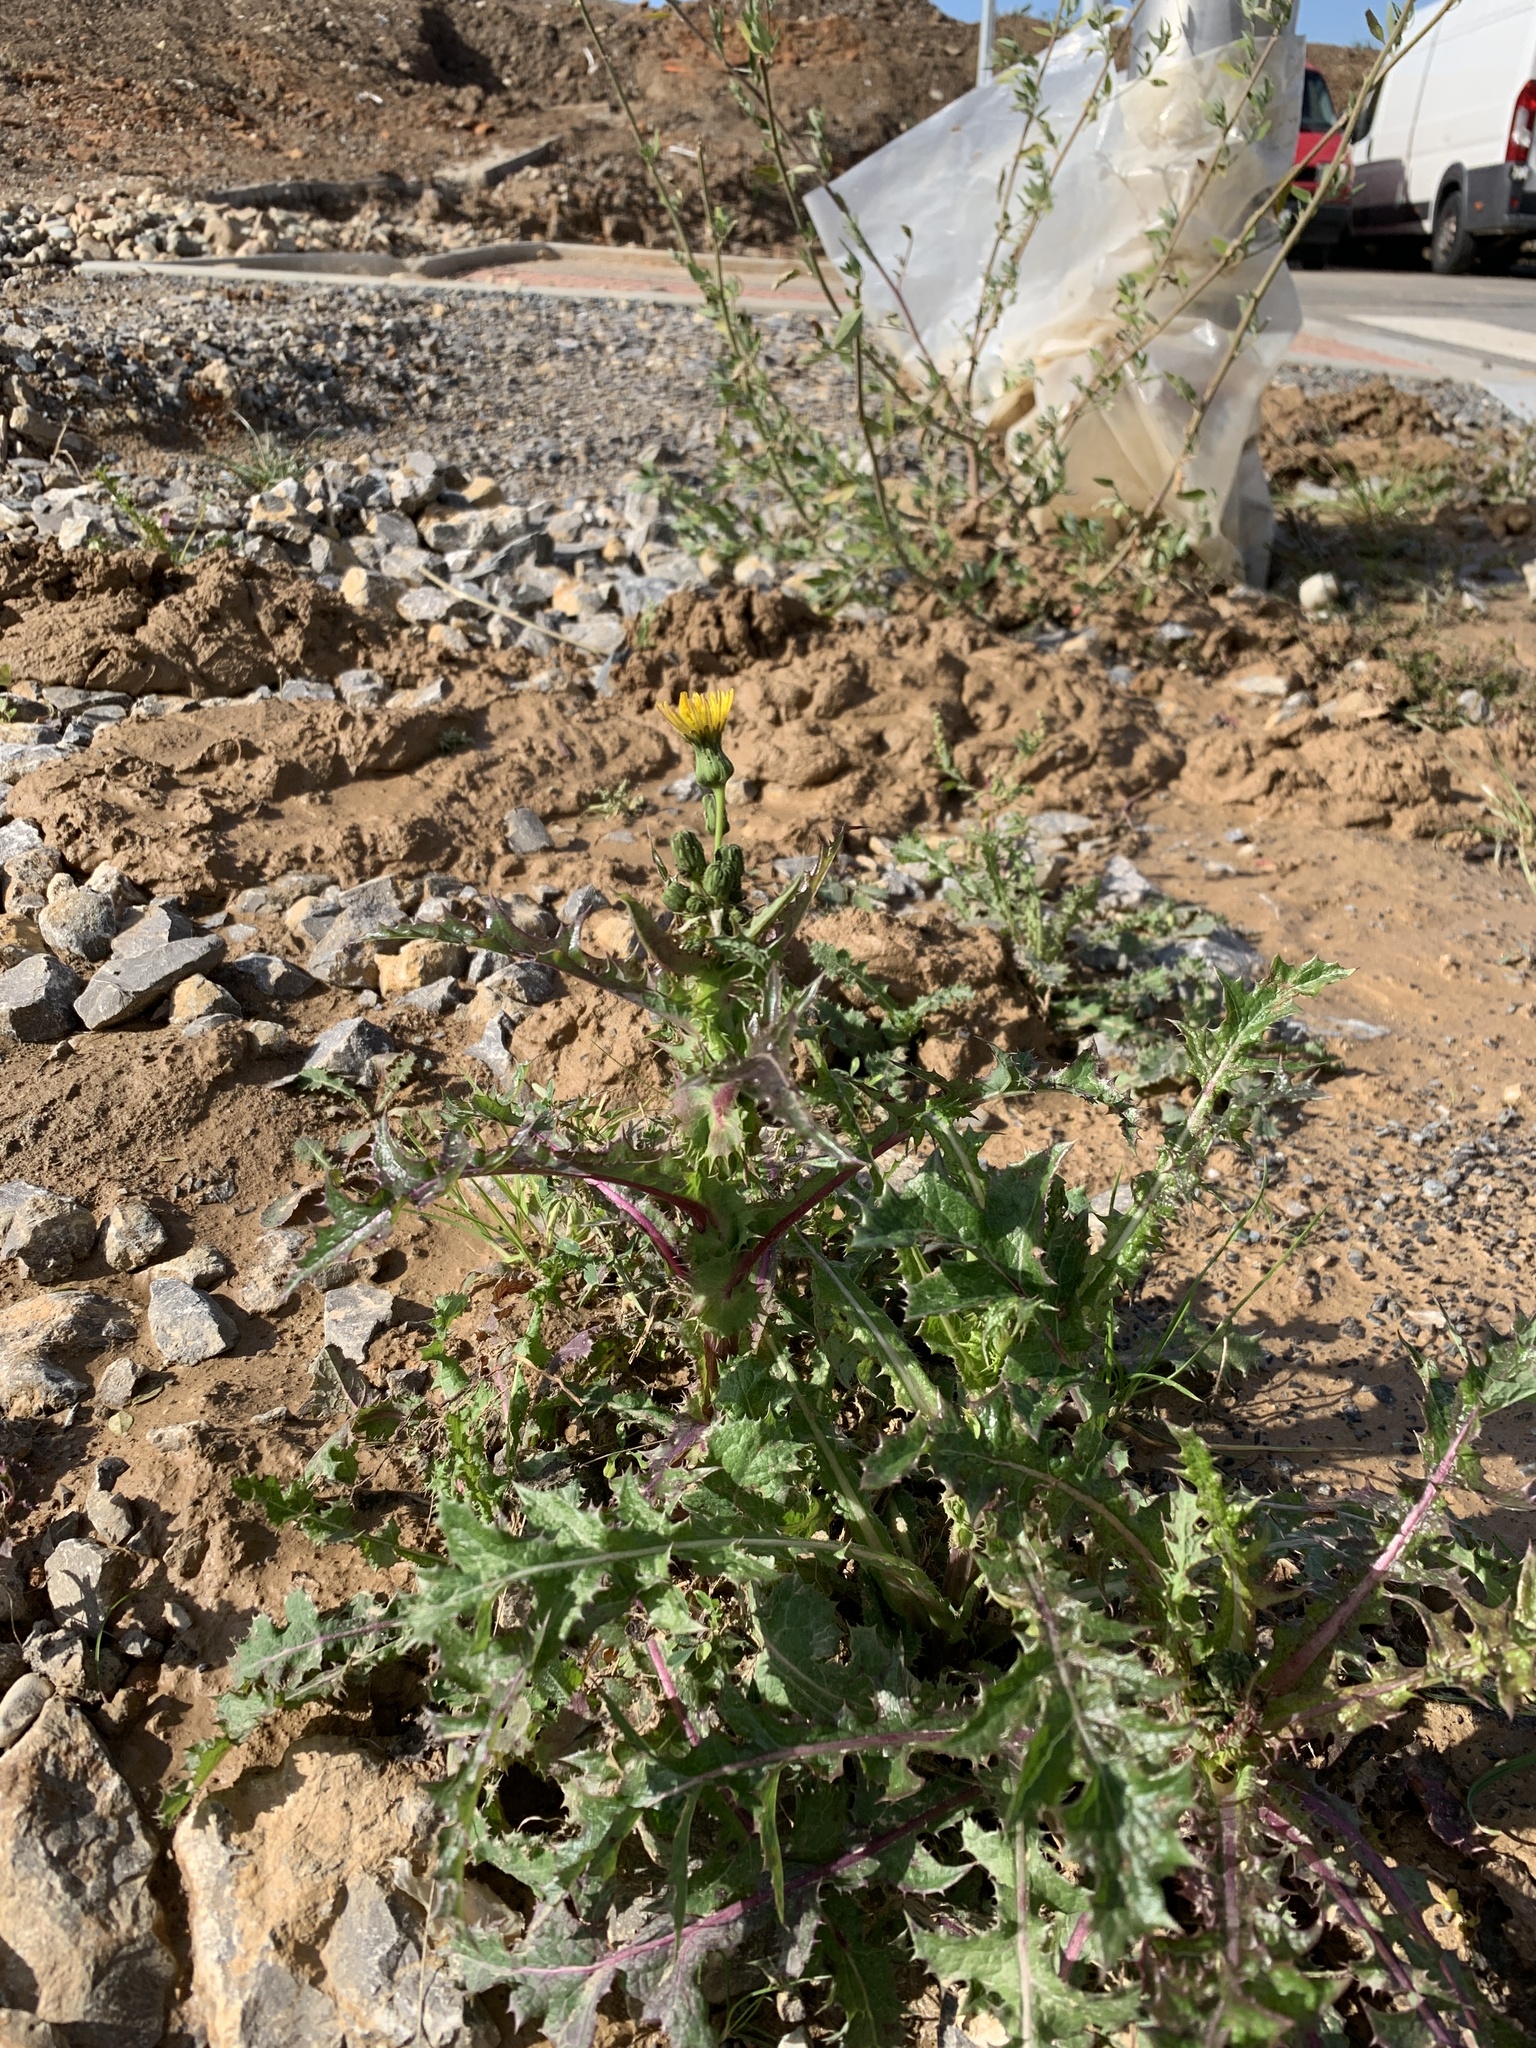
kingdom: Plantae
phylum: Tracheophyta
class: Magnoliopsida
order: Asterales
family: Asteraceae
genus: Sonchus
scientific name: Sonchus asper
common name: Prickly sow-thistle
